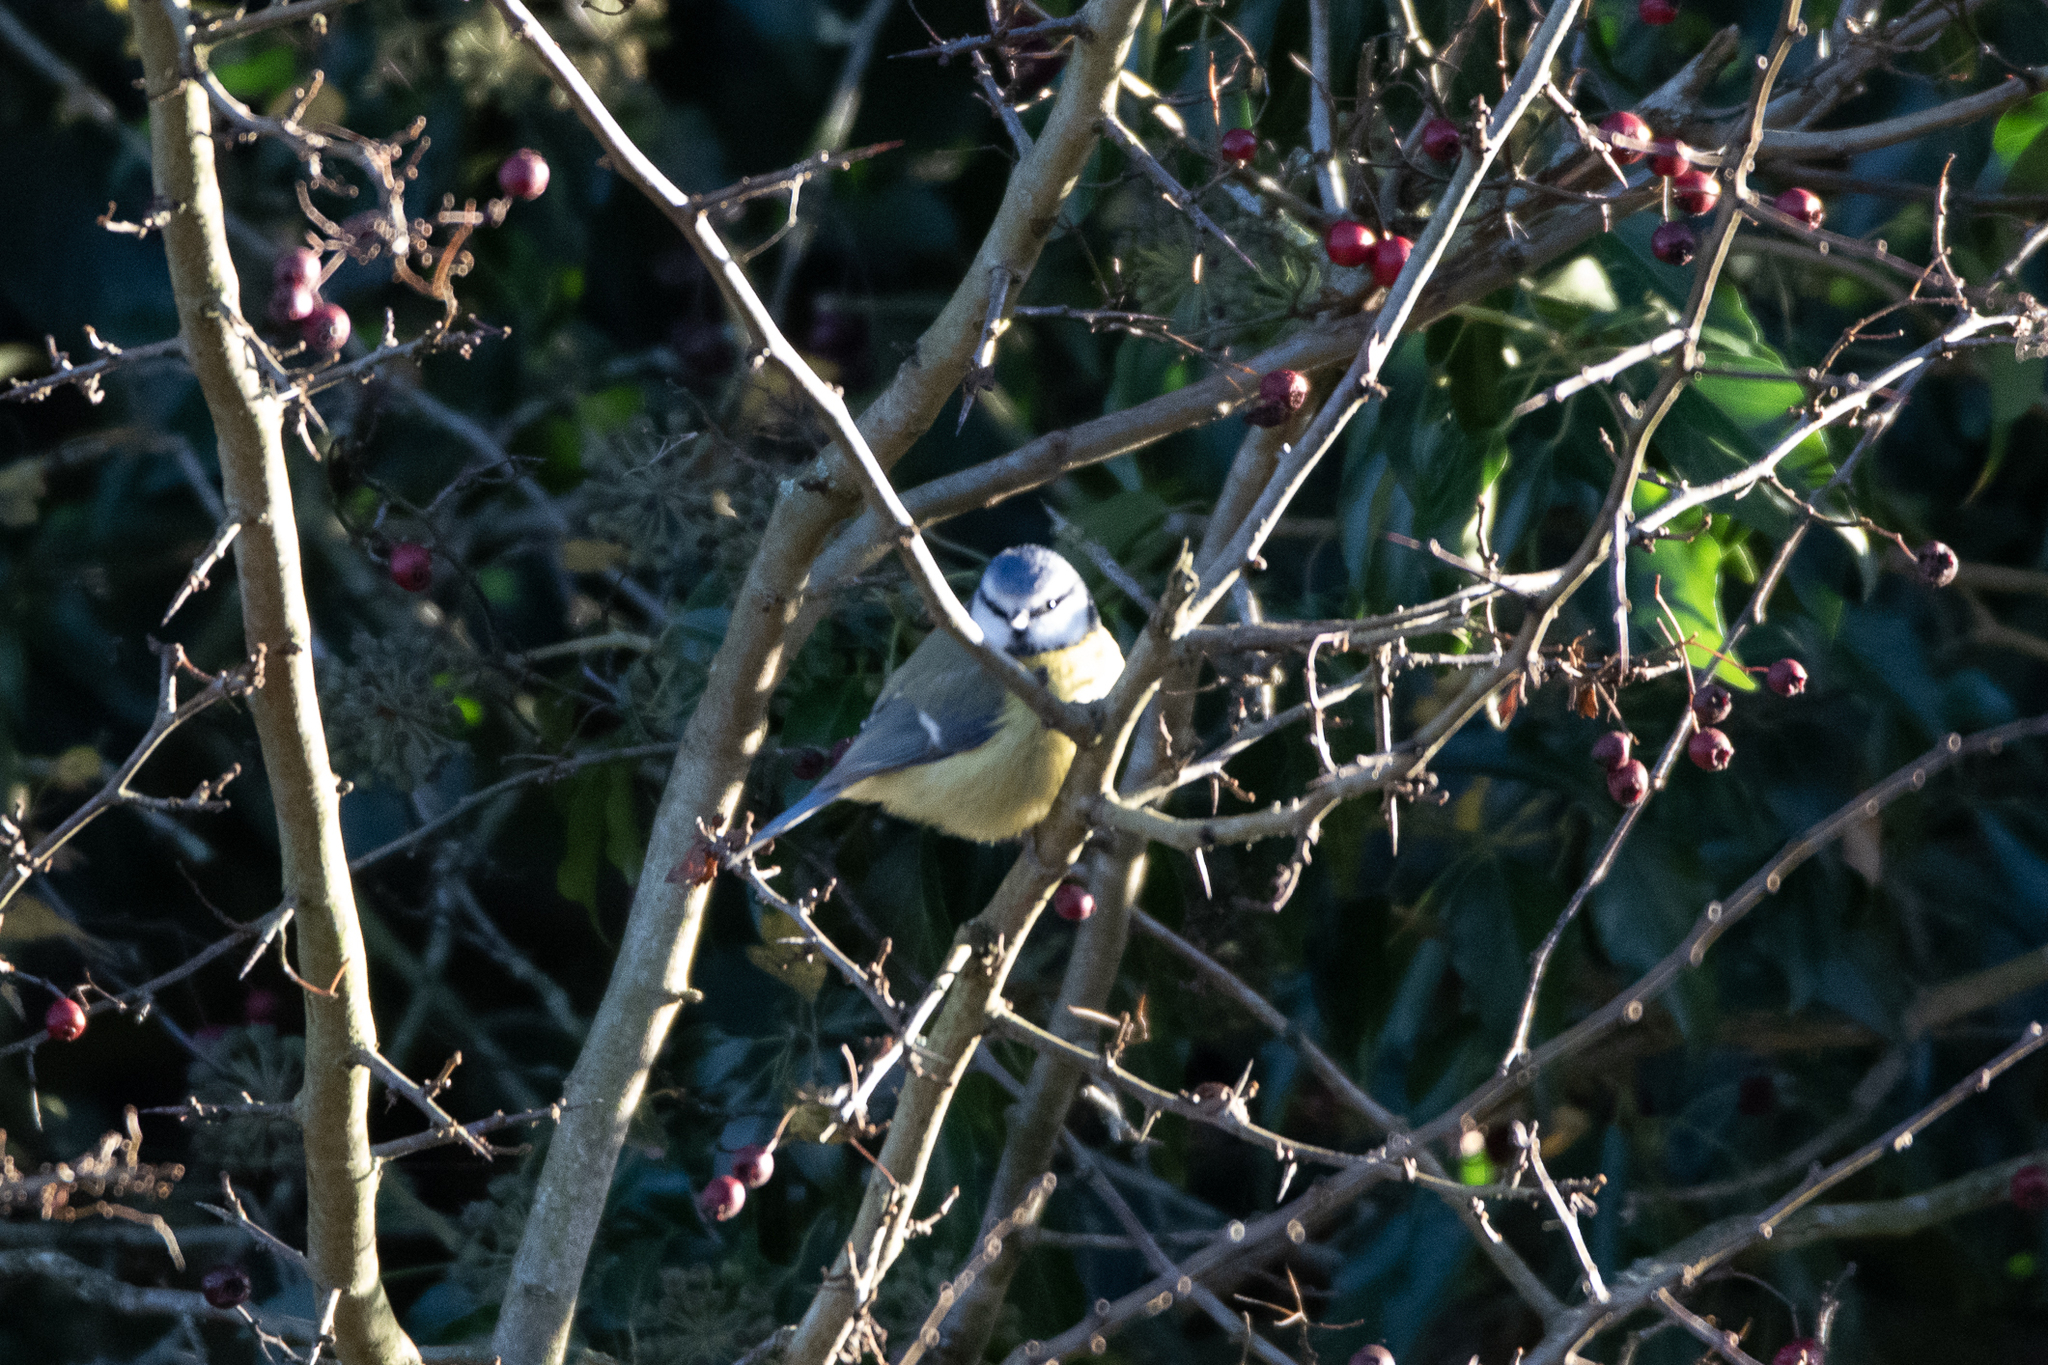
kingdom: Animalia
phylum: Chordata
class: Aves
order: Passeriformes
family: Paridae
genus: Cyanistes
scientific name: Cyanistes caeruleus
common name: Eurasian blue tit
